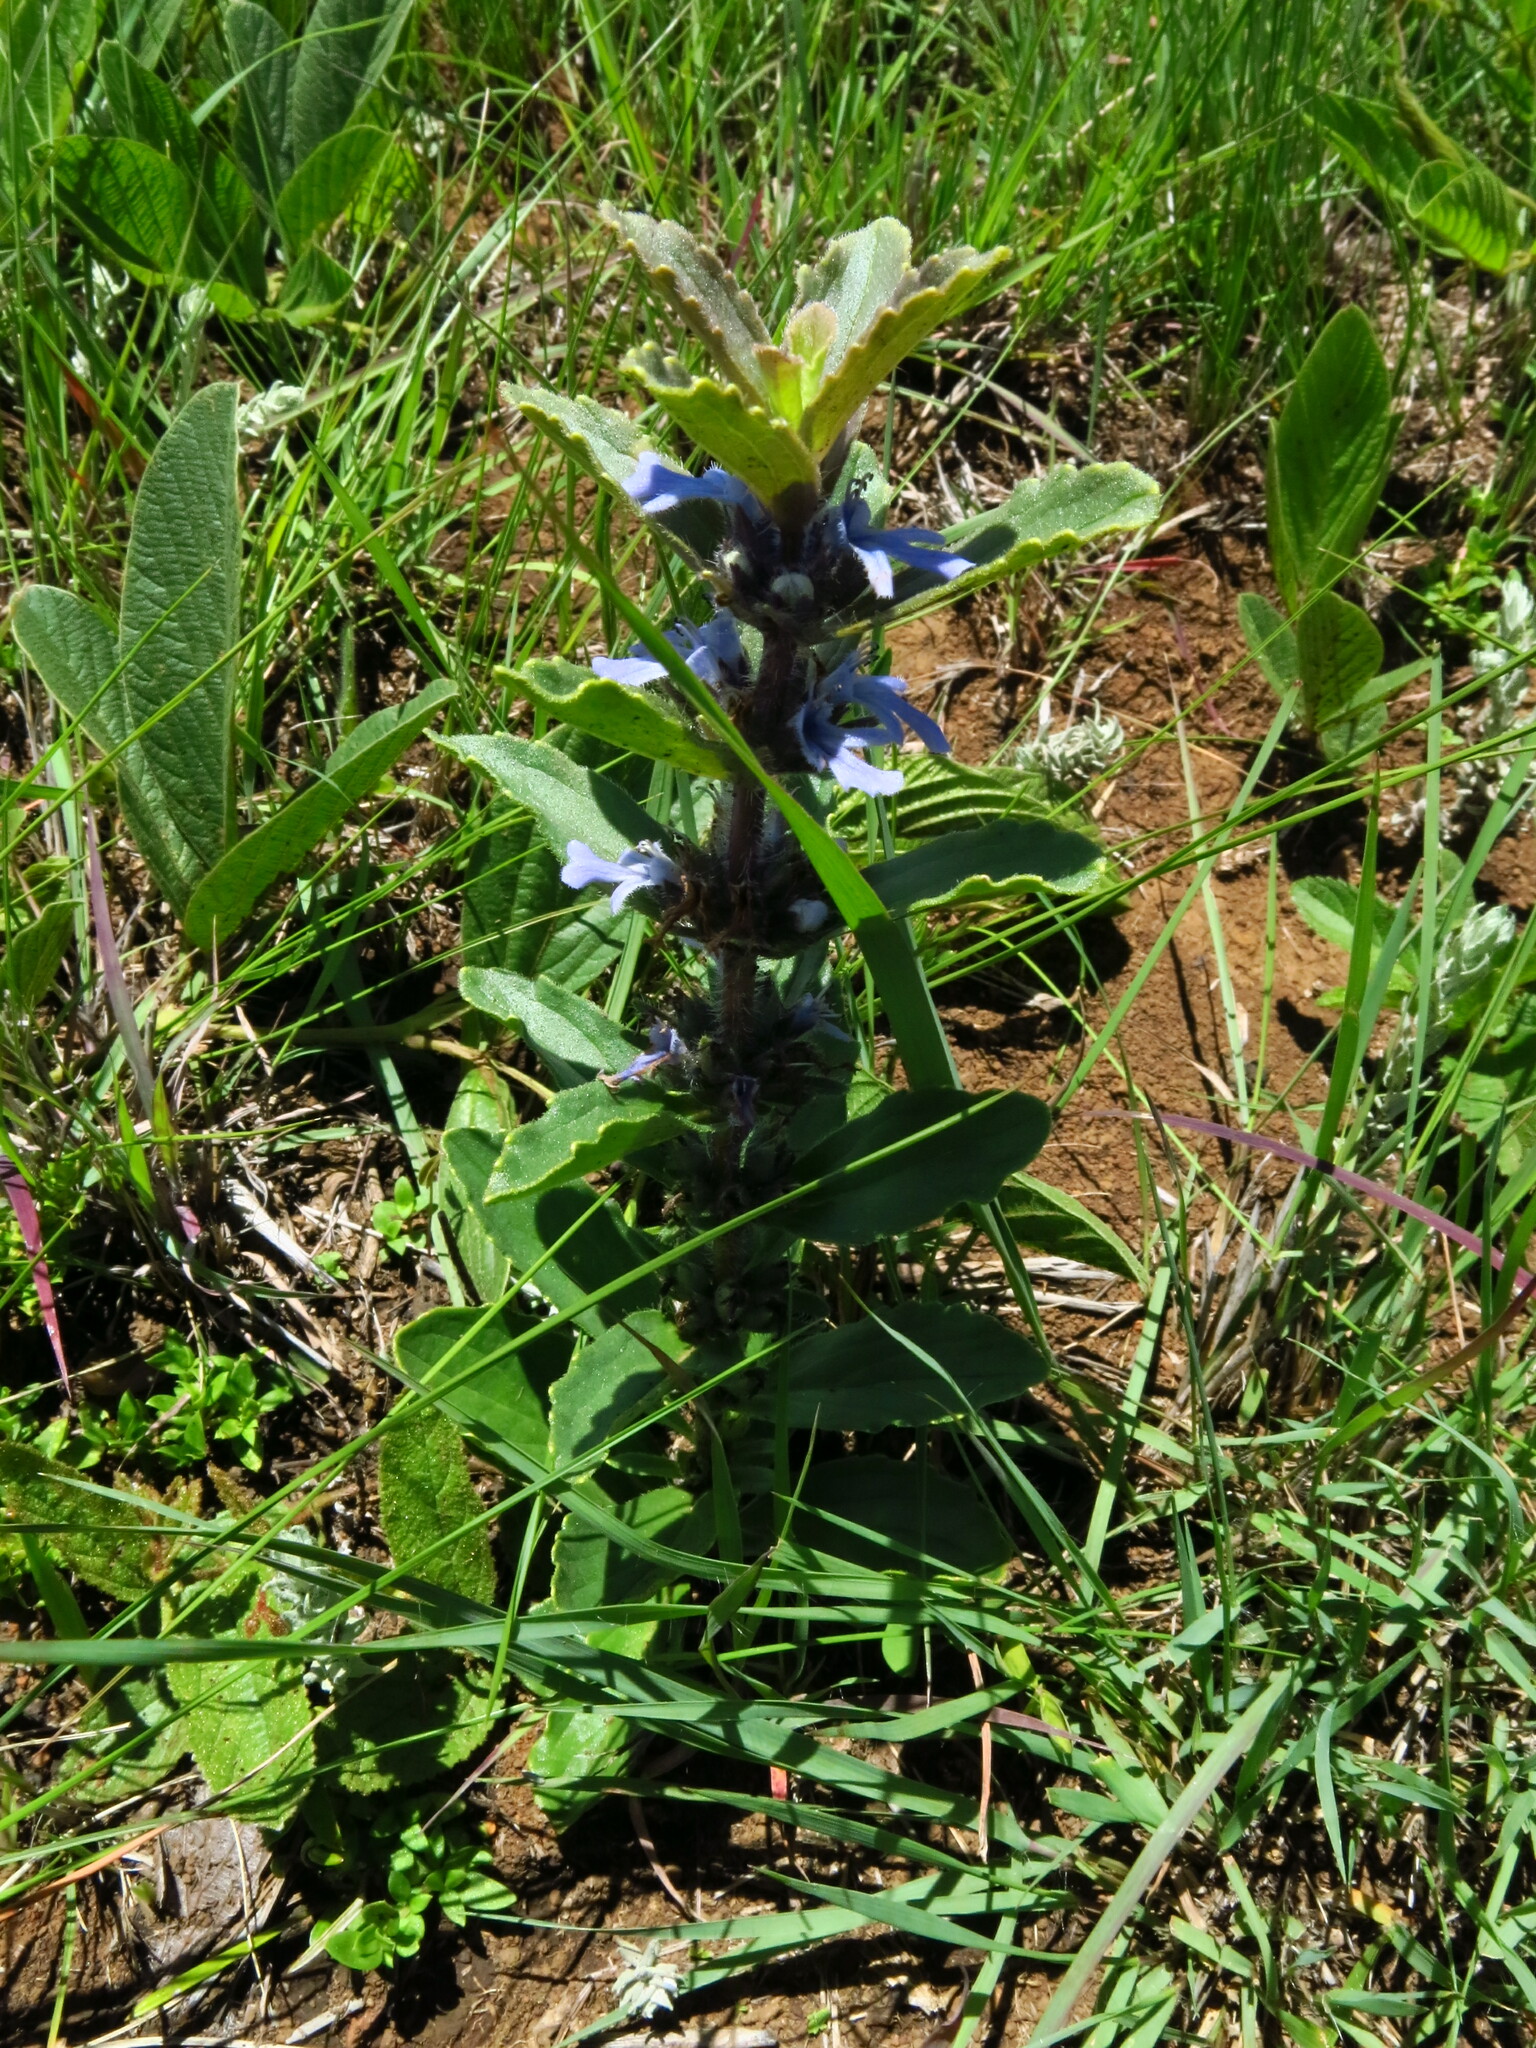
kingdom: Plantae
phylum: Tracheophyta
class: Magnoliopsida
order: Lamiales
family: Lamiaceae
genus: Ajuga
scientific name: Ajuga ophrydis
